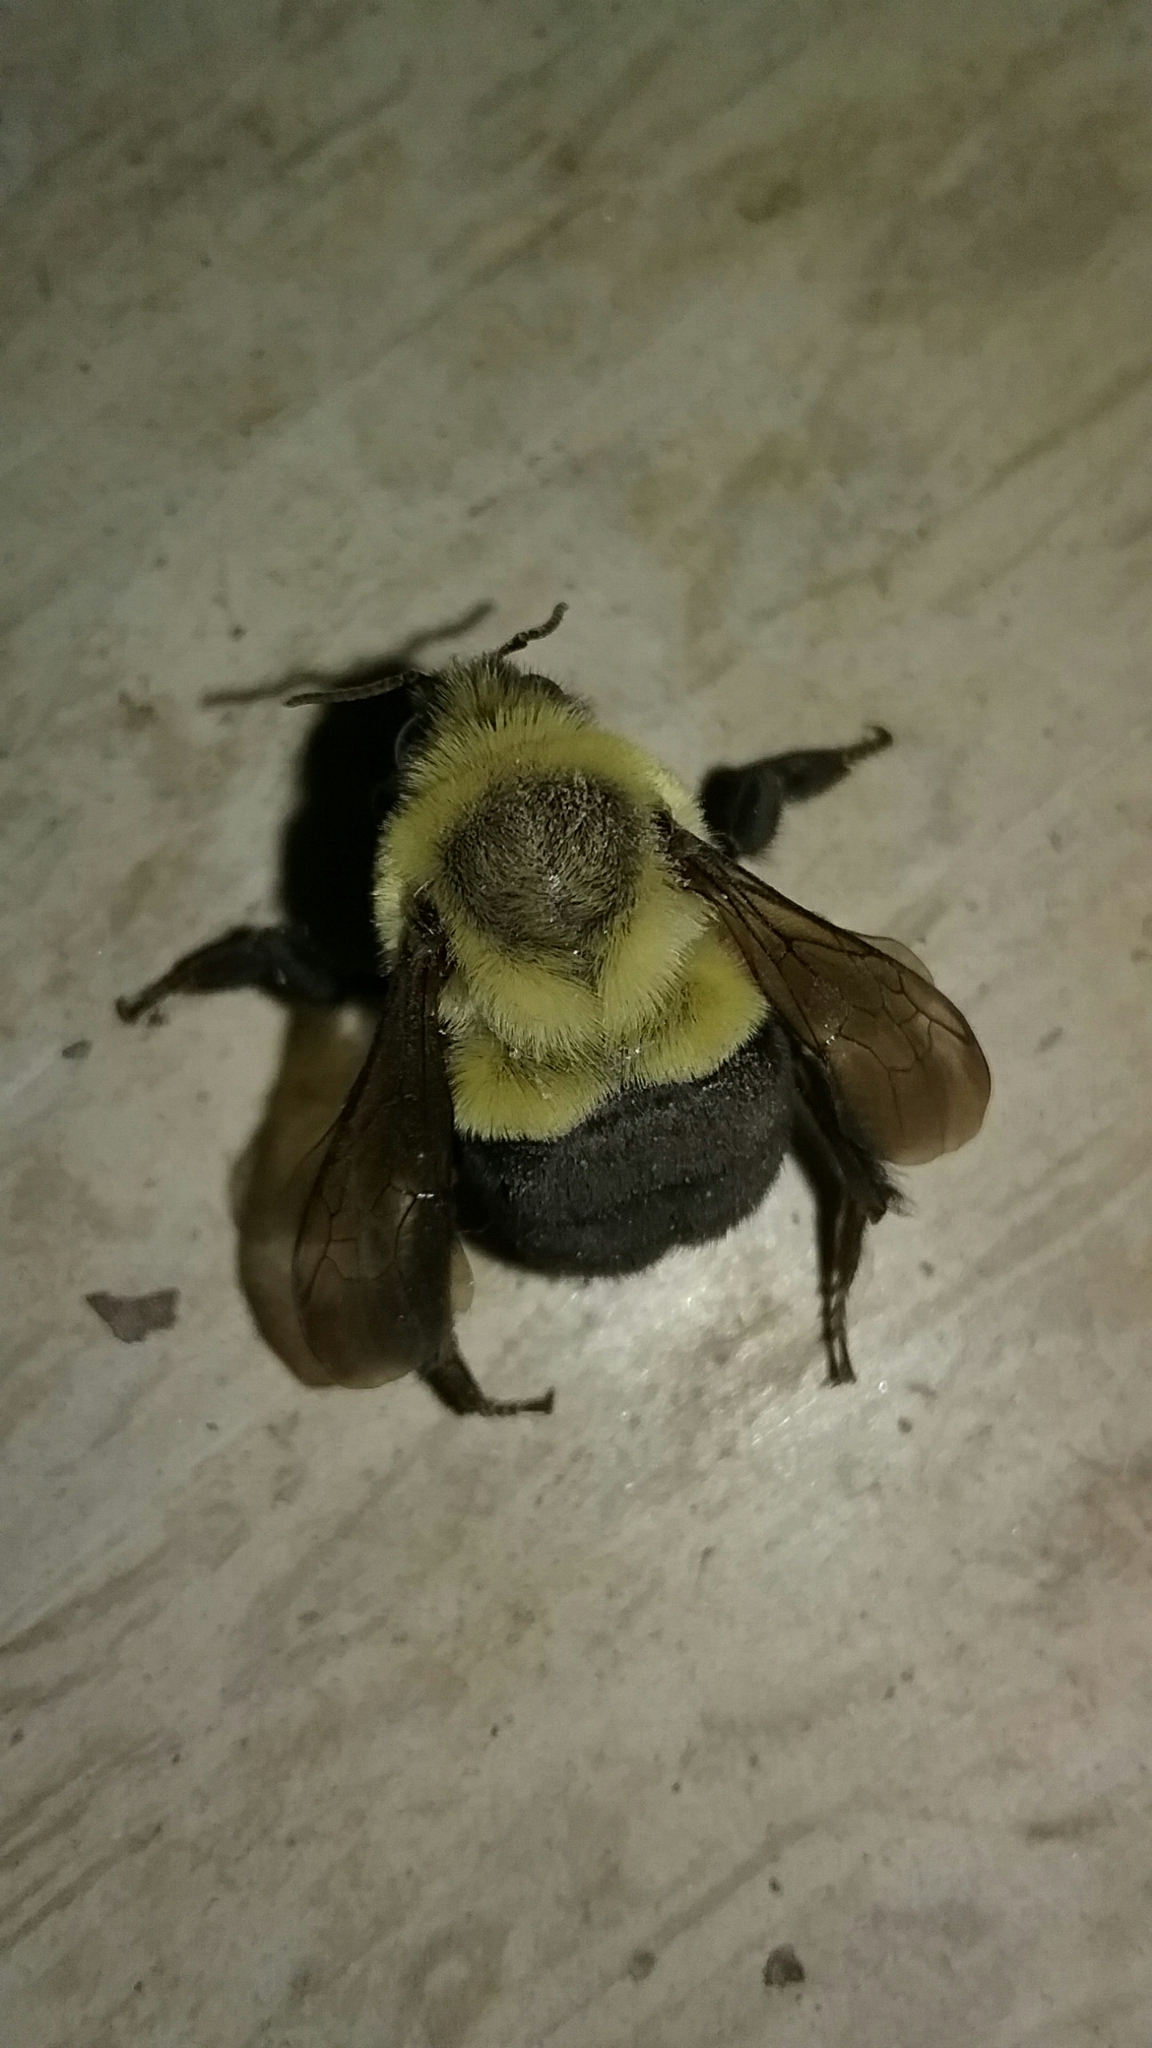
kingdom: Animalia
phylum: Arthropoda
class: Insecta
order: Hymenoptera
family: Apidae
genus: Bombus
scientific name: Bombus impatiens
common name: Common eastern bumble bee
